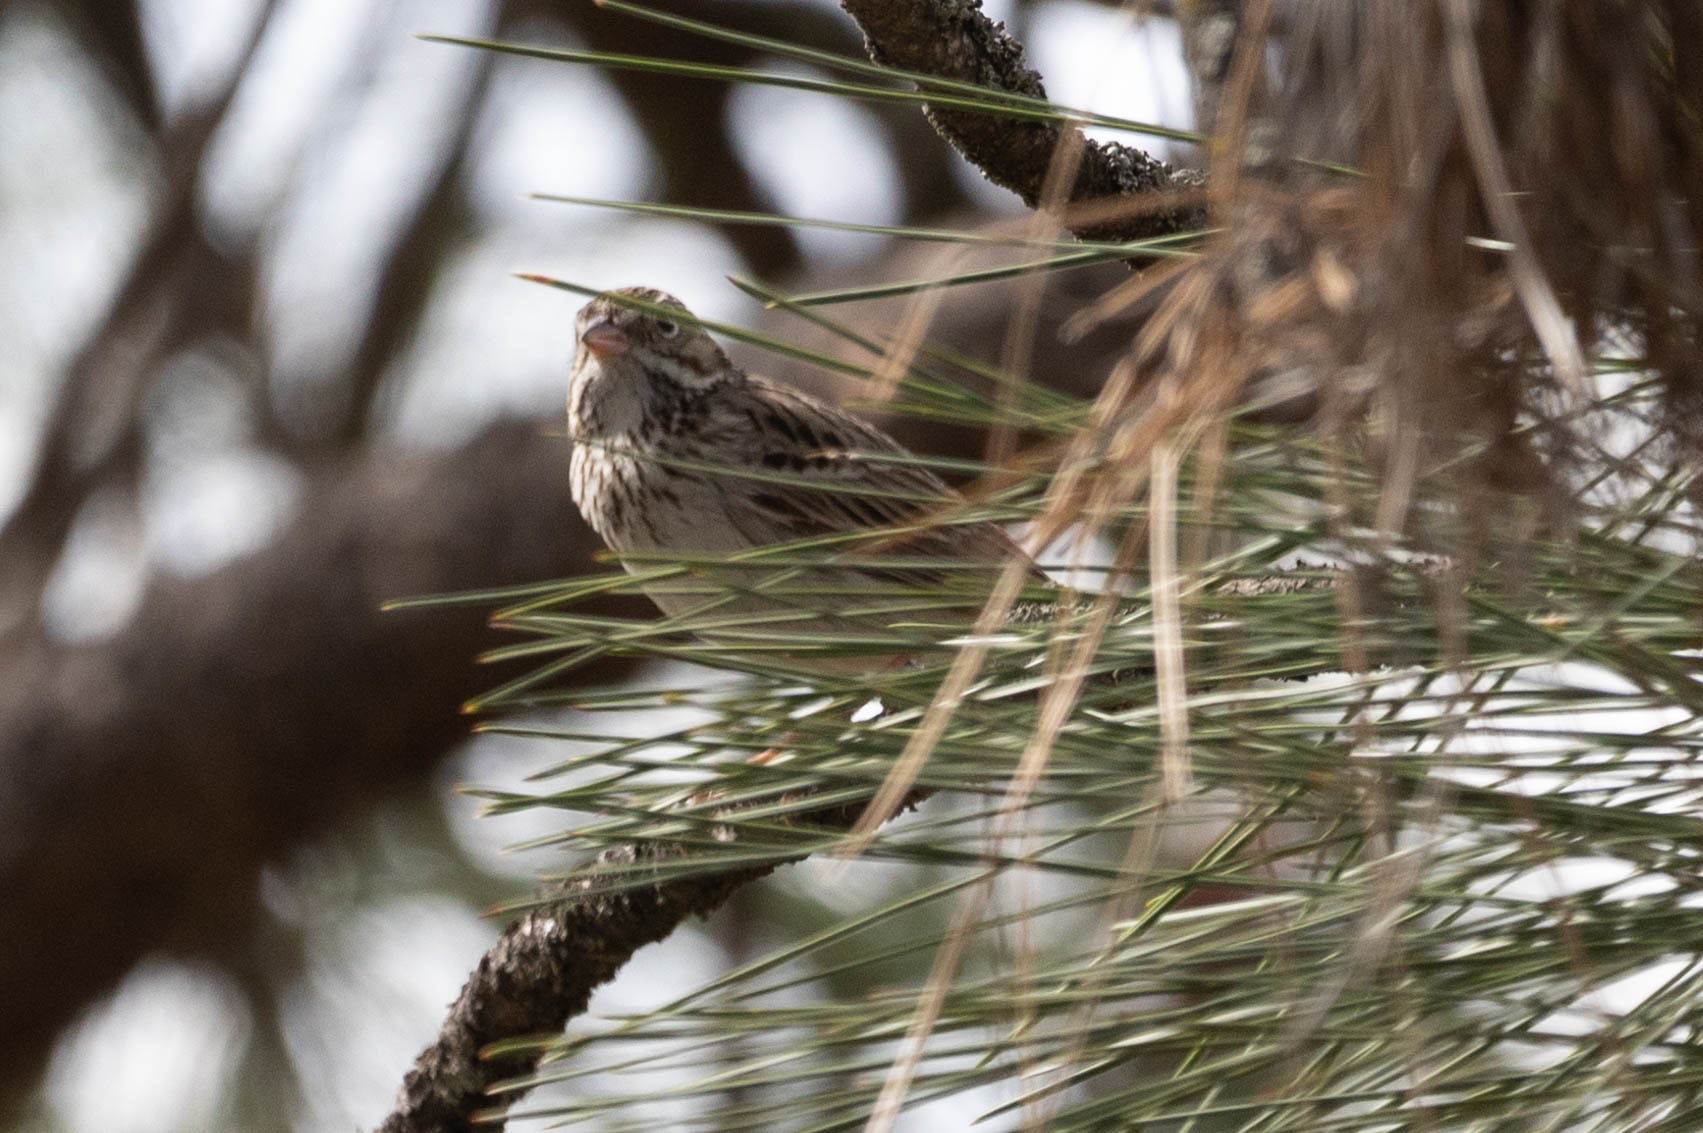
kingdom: Animalia
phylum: Chordata
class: Aves
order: Passeriformes
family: Passerellidae
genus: Pooecetes
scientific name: Pooecetes gramineus
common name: Vesper sparrow
